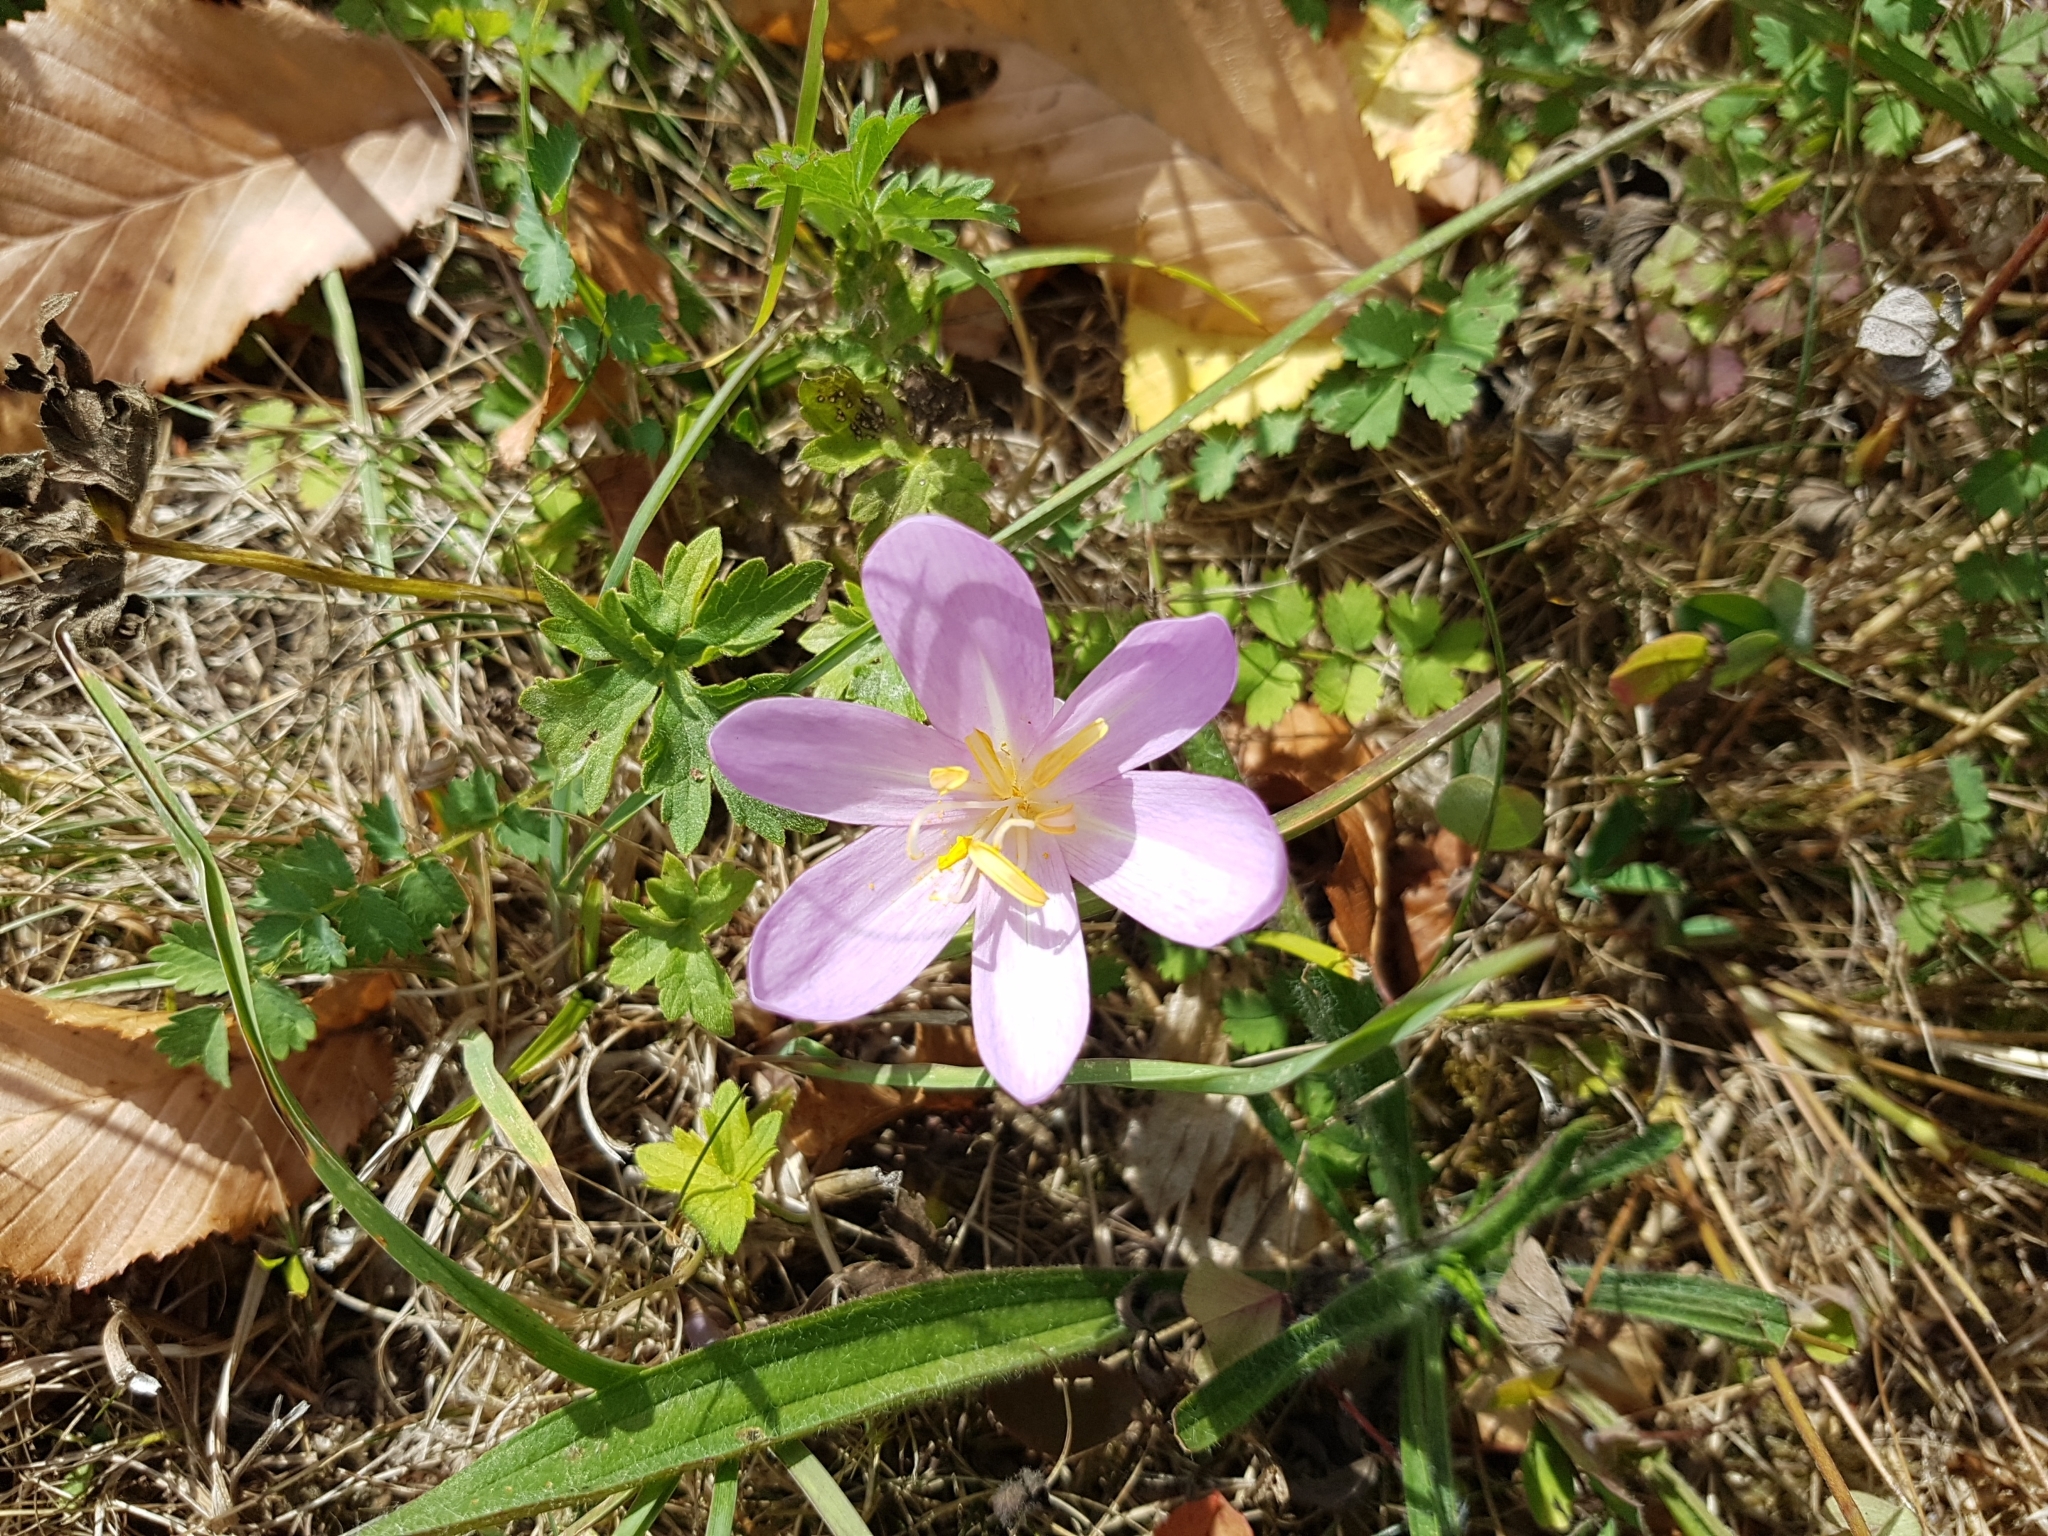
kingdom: Plantae
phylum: Tracheophyta
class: Liliopsida
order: Liliales
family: Colchicaceae
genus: Colchicum
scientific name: Colchicum autumnale
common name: Autumn crocus
